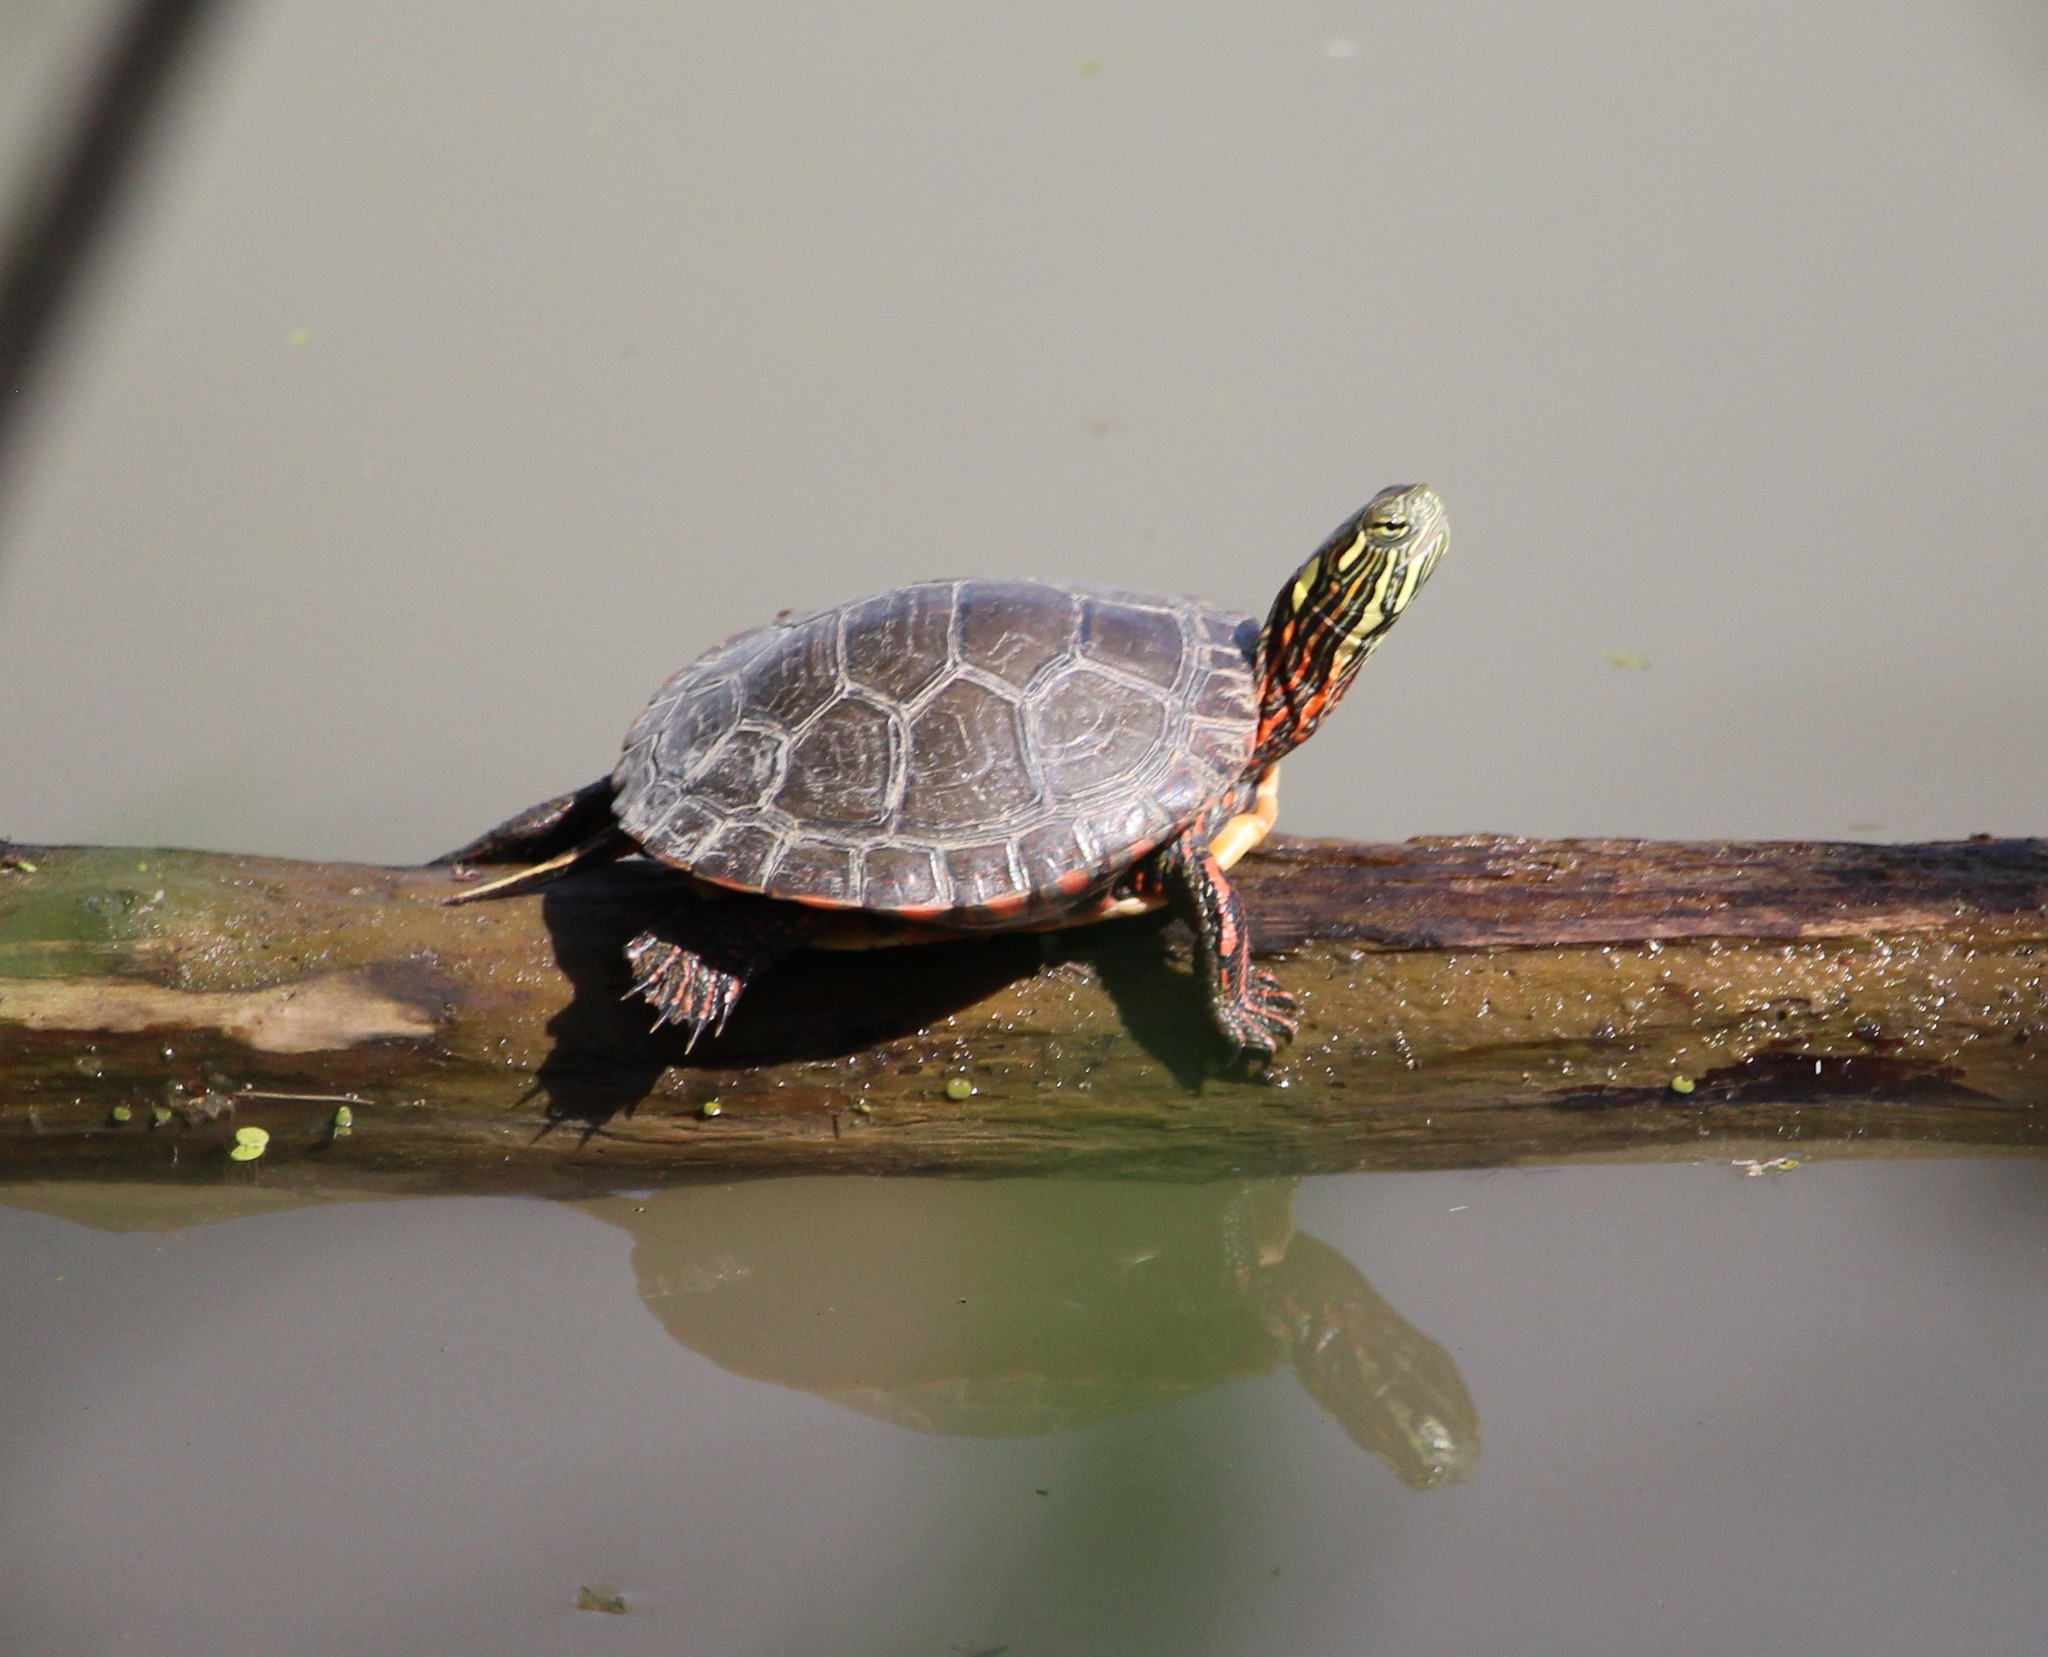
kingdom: Animalia
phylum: Chordata
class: Testudines
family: Emydidae
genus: Chrysemys
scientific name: Chrysemys picta
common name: Painted turtle
